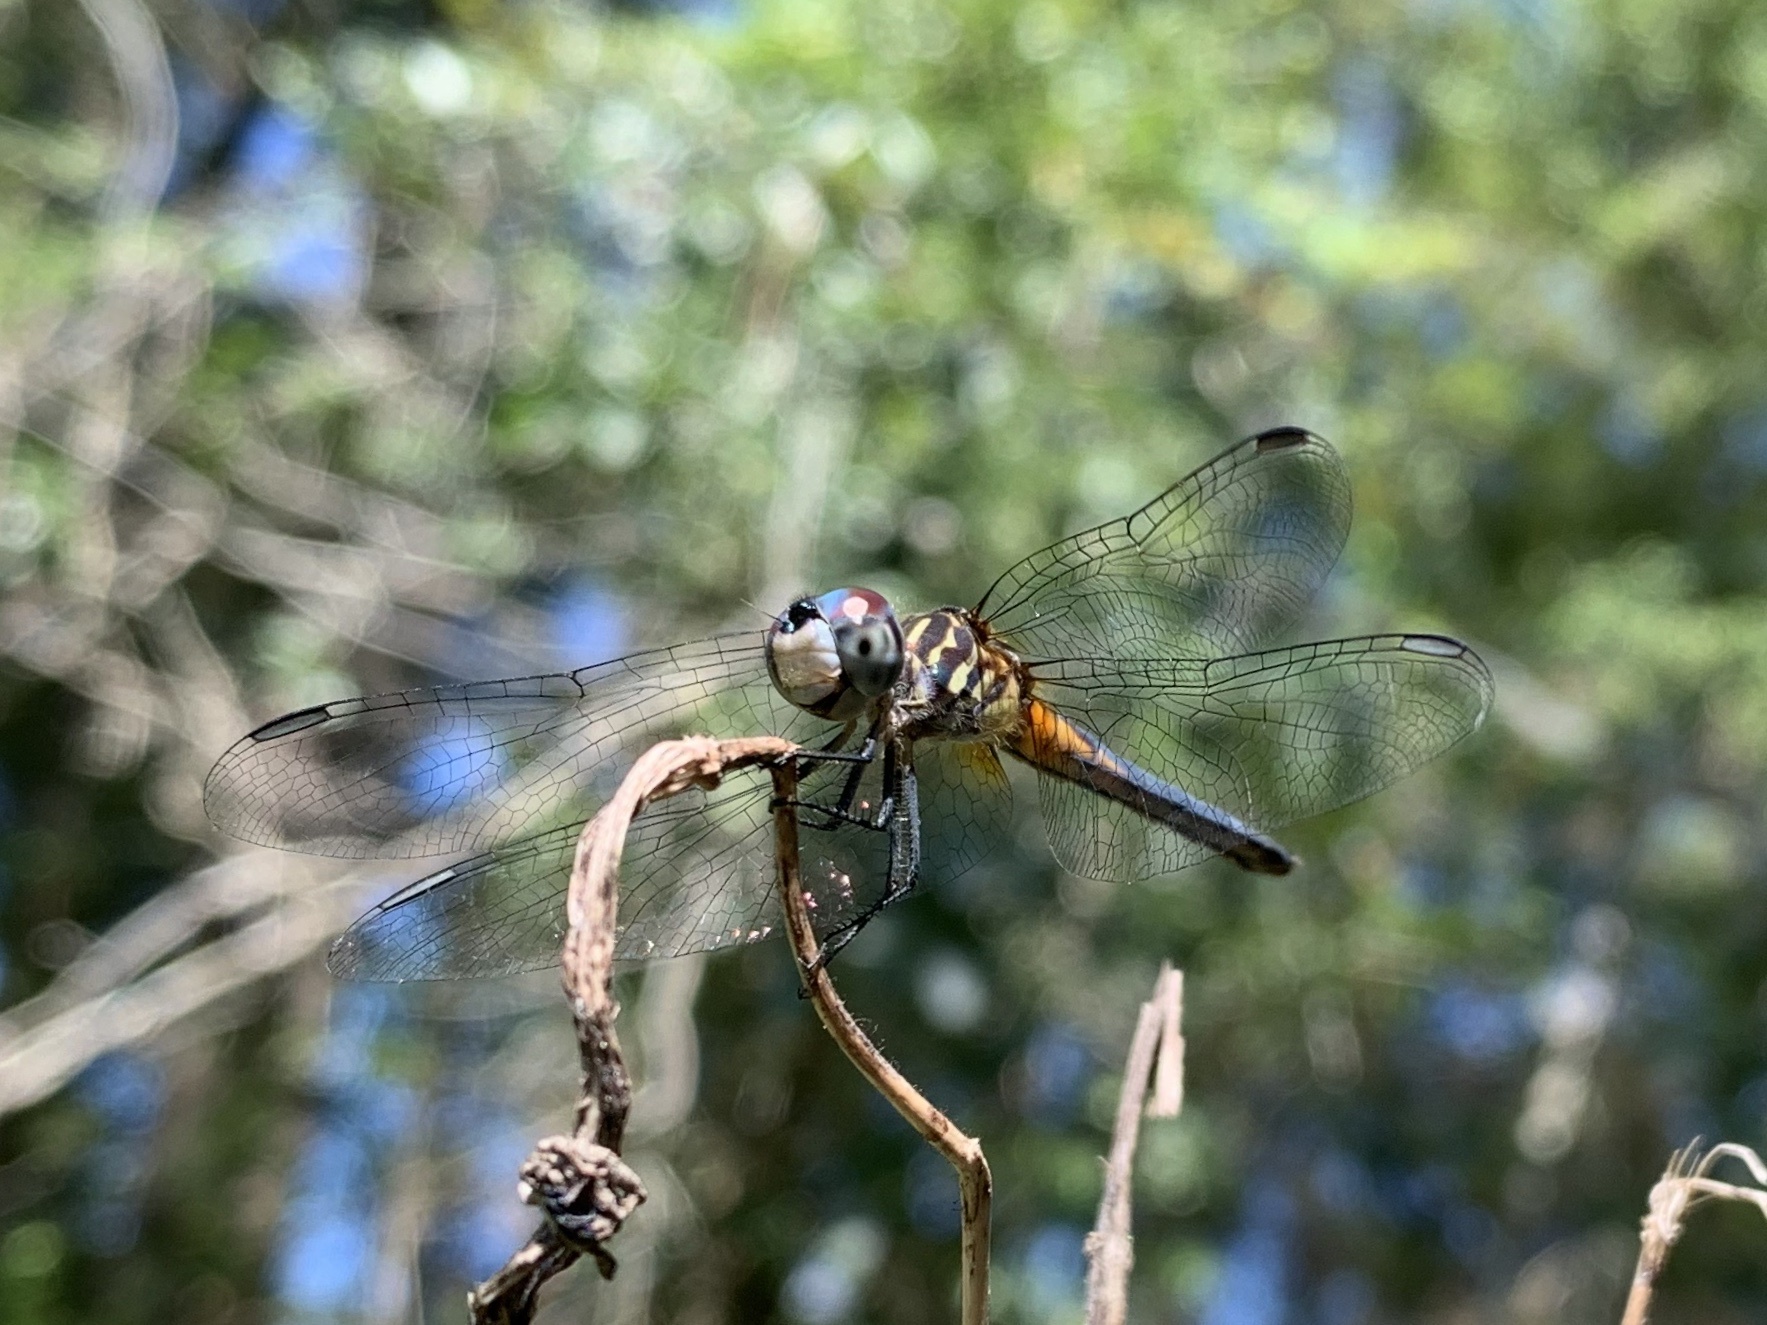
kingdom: Animalia
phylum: Arthropoda
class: Insecta
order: Odonata
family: Libellulidae
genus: Pachydiplax
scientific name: Pachydiplax longipennis
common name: Blue dasher
